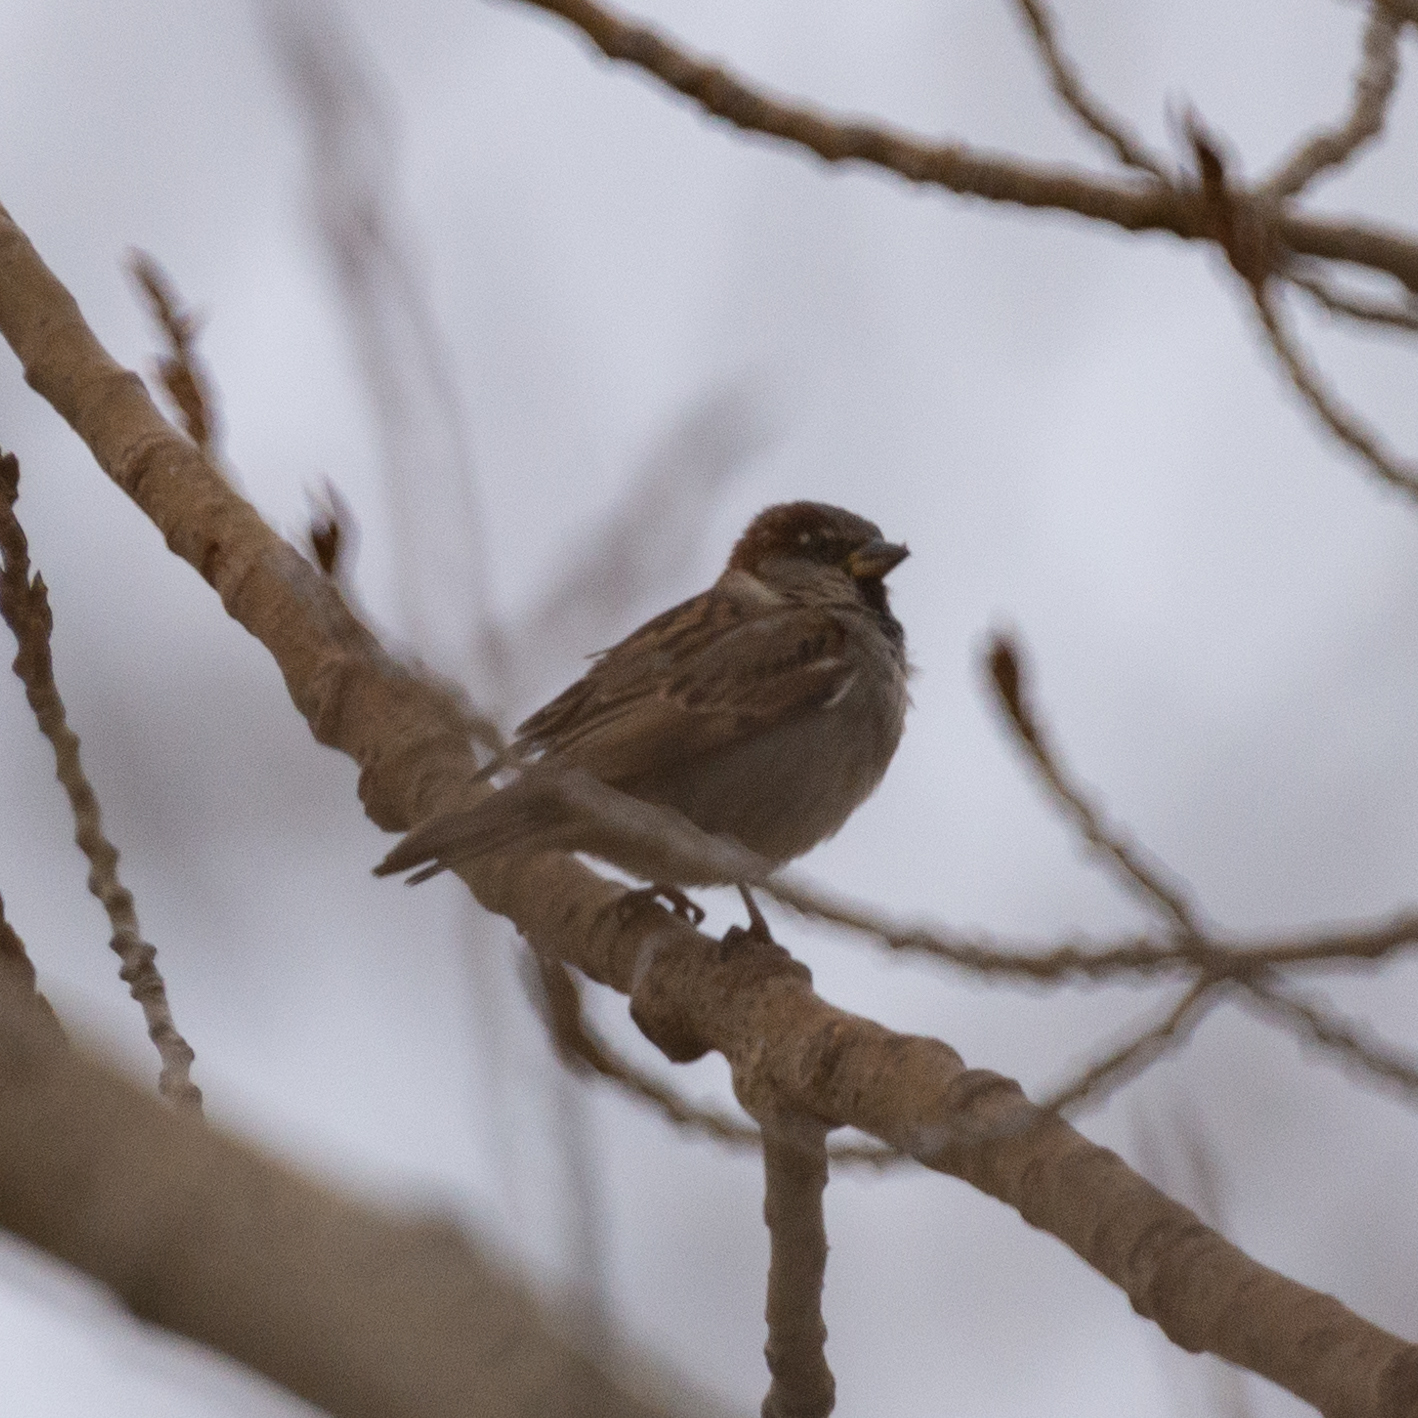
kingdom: Animalia
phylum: Chordata
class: Aves
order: Passeriformes
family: Passeridae
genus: Passer
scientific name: Passer domesticus
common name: House sparrow
